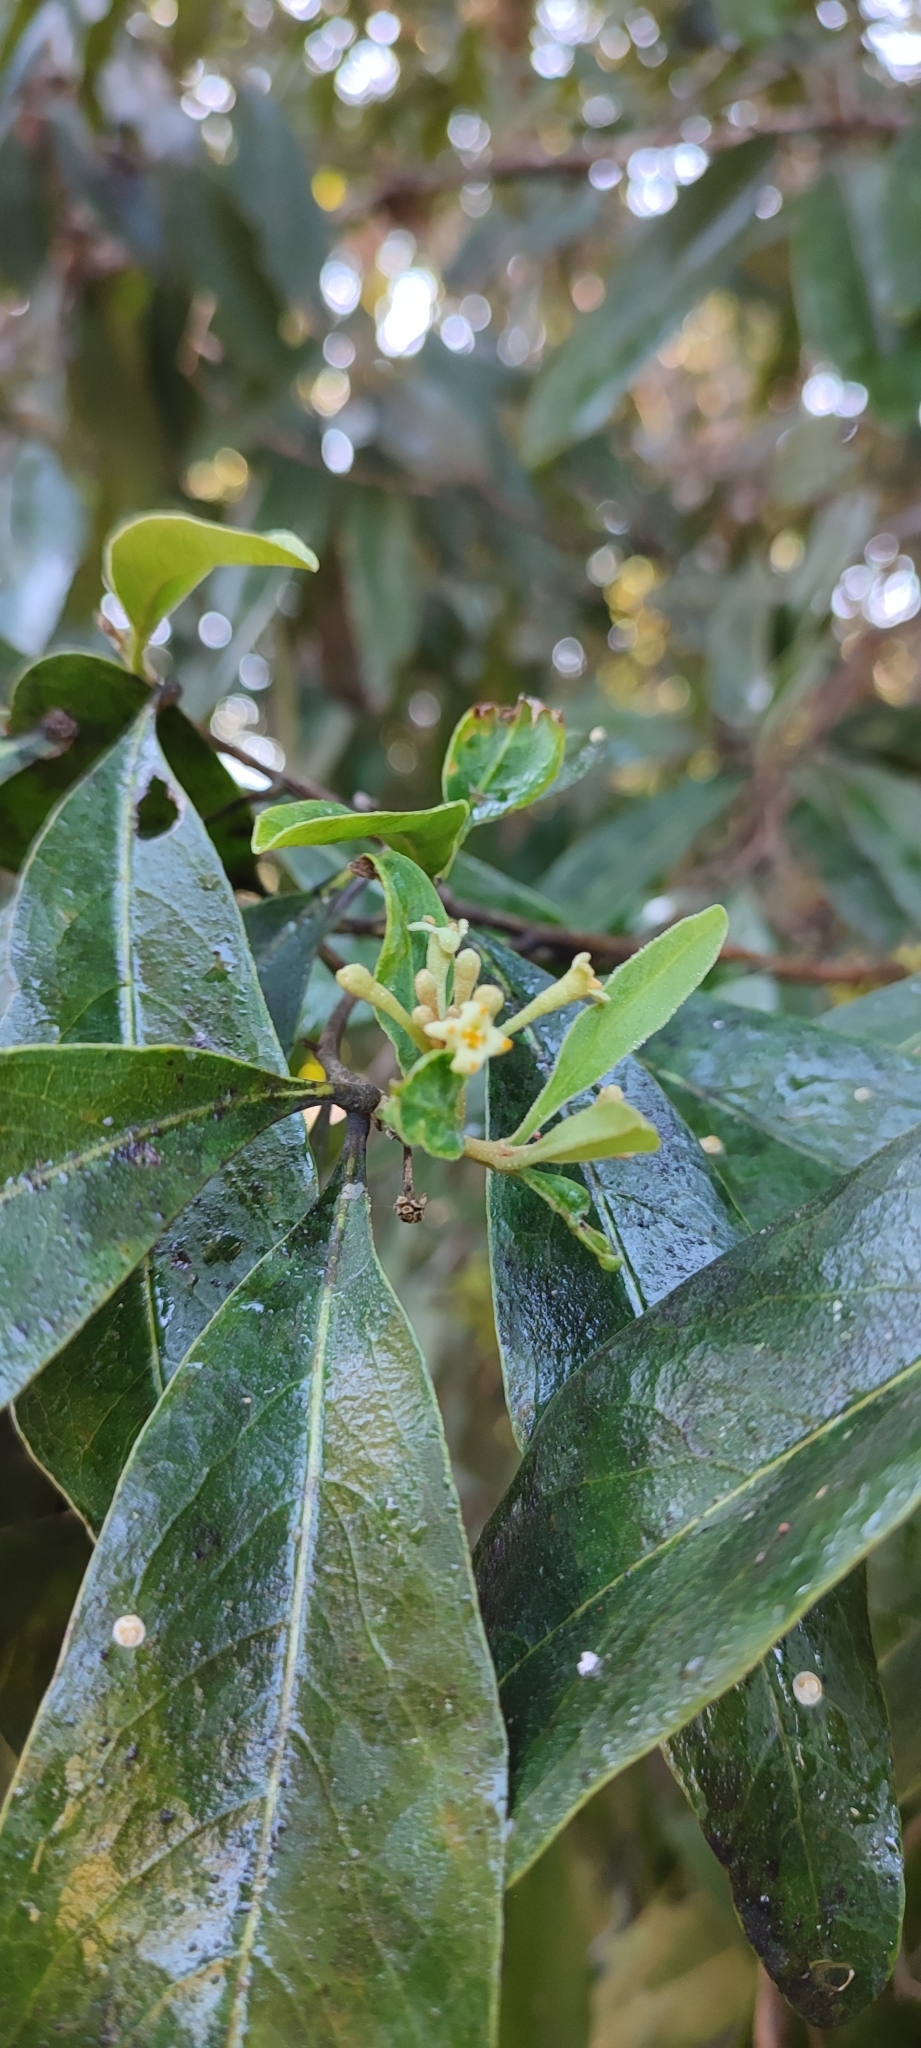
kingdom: Plantae
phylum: Tracheophyta
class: Magnoliopsida
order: Malvales
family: Thymelaeaceae
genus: Daphnopsis
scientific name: Daphnopsis mexiae
